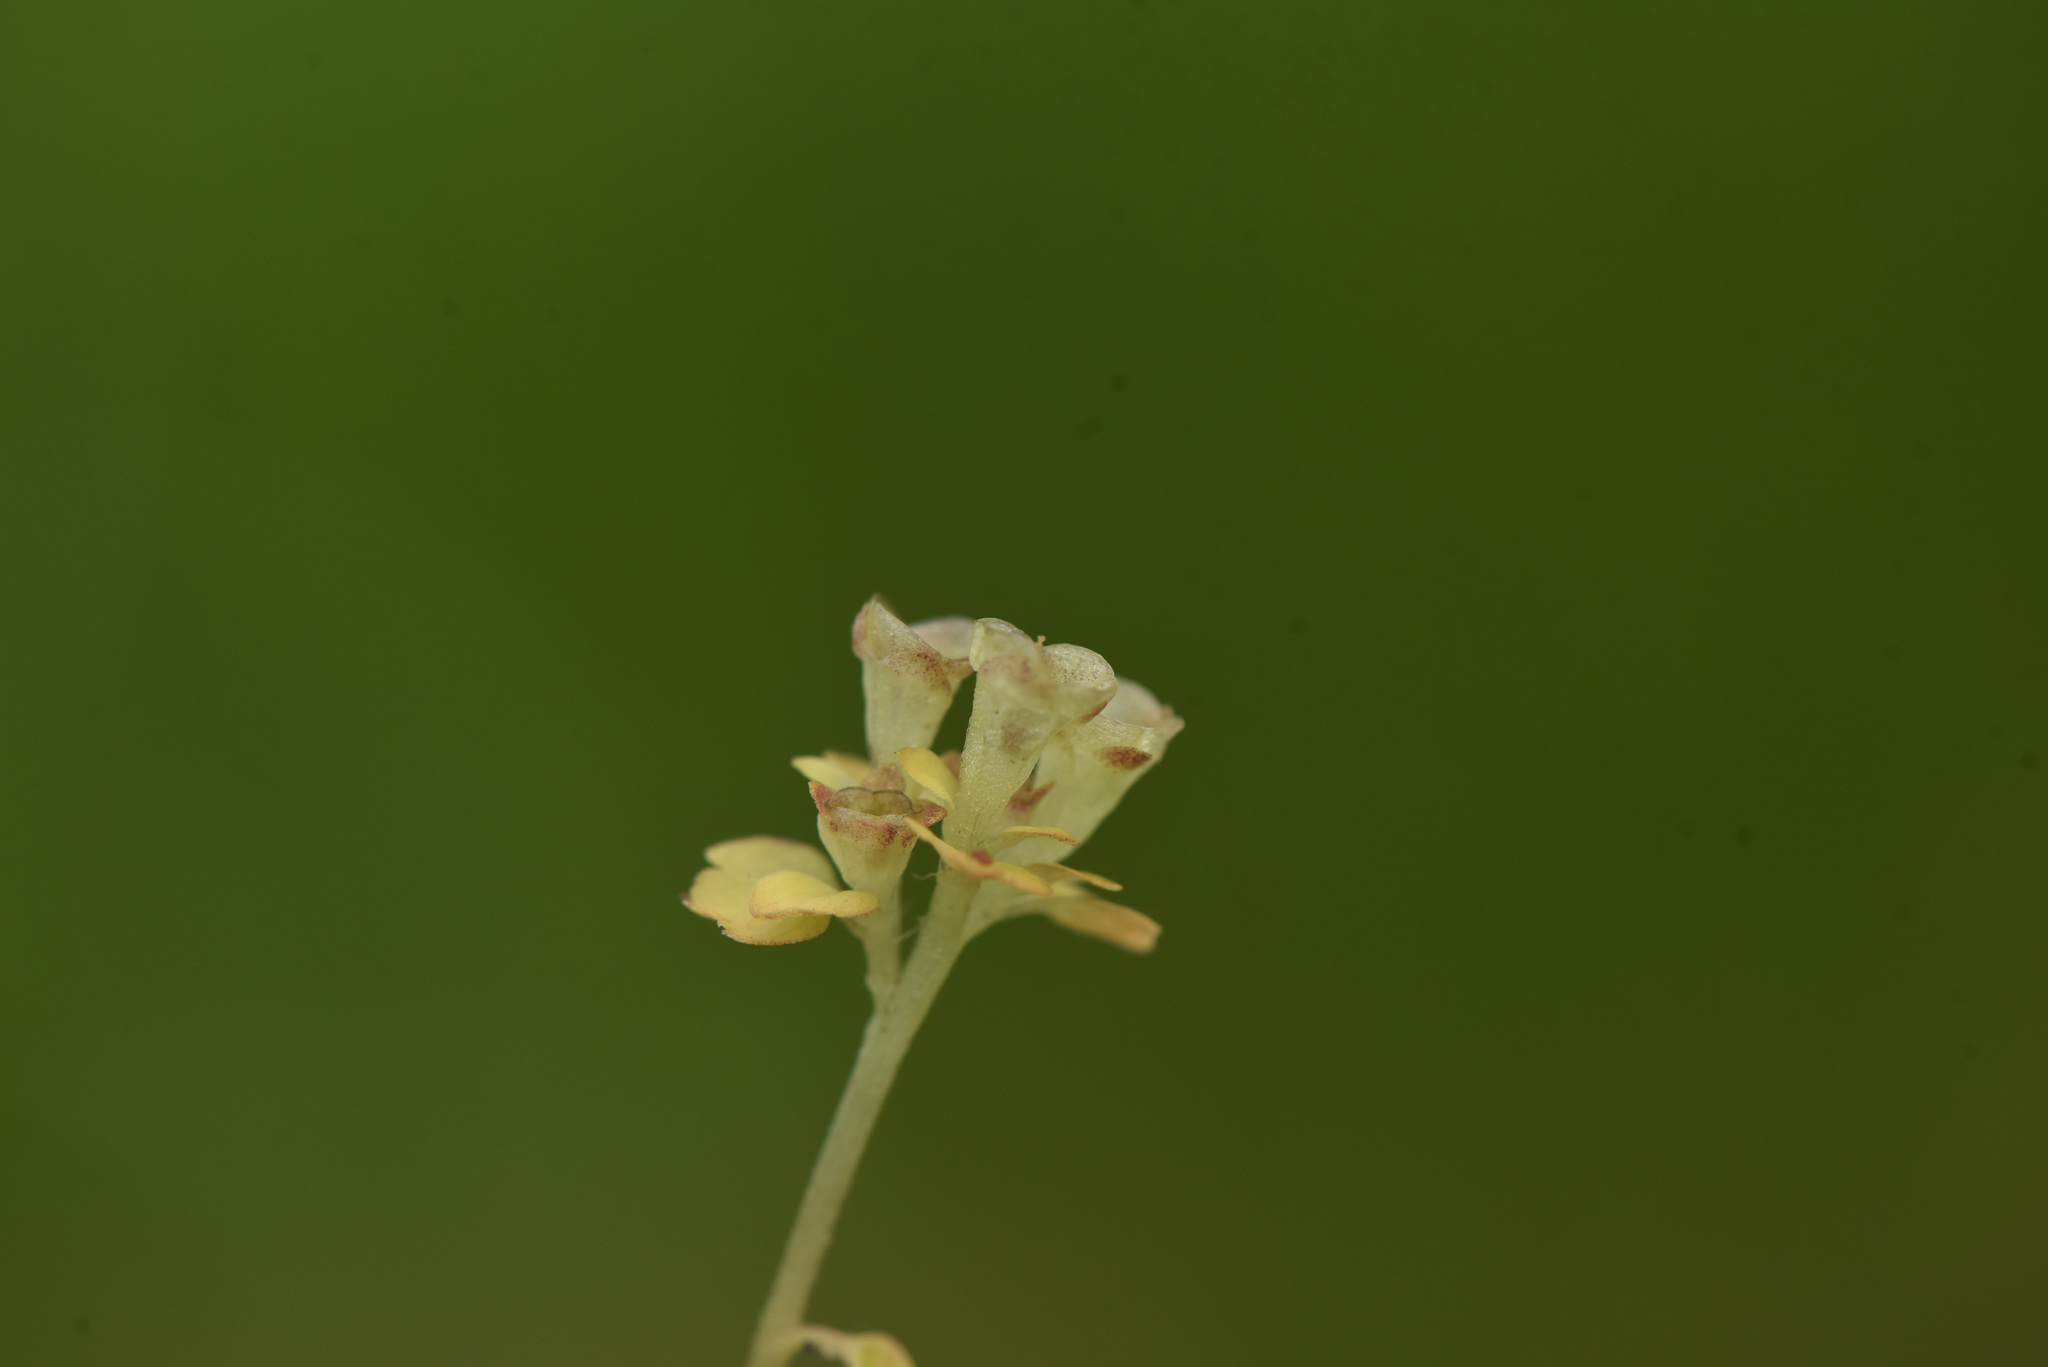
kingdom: Plantae
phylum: Tracheophyta
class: Magnoliopsida
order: Saxifragales
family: Saxifragaceae
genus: Chrysosplenium
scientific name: Chrysosplenium tetrandrum
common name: Green saxifrage
